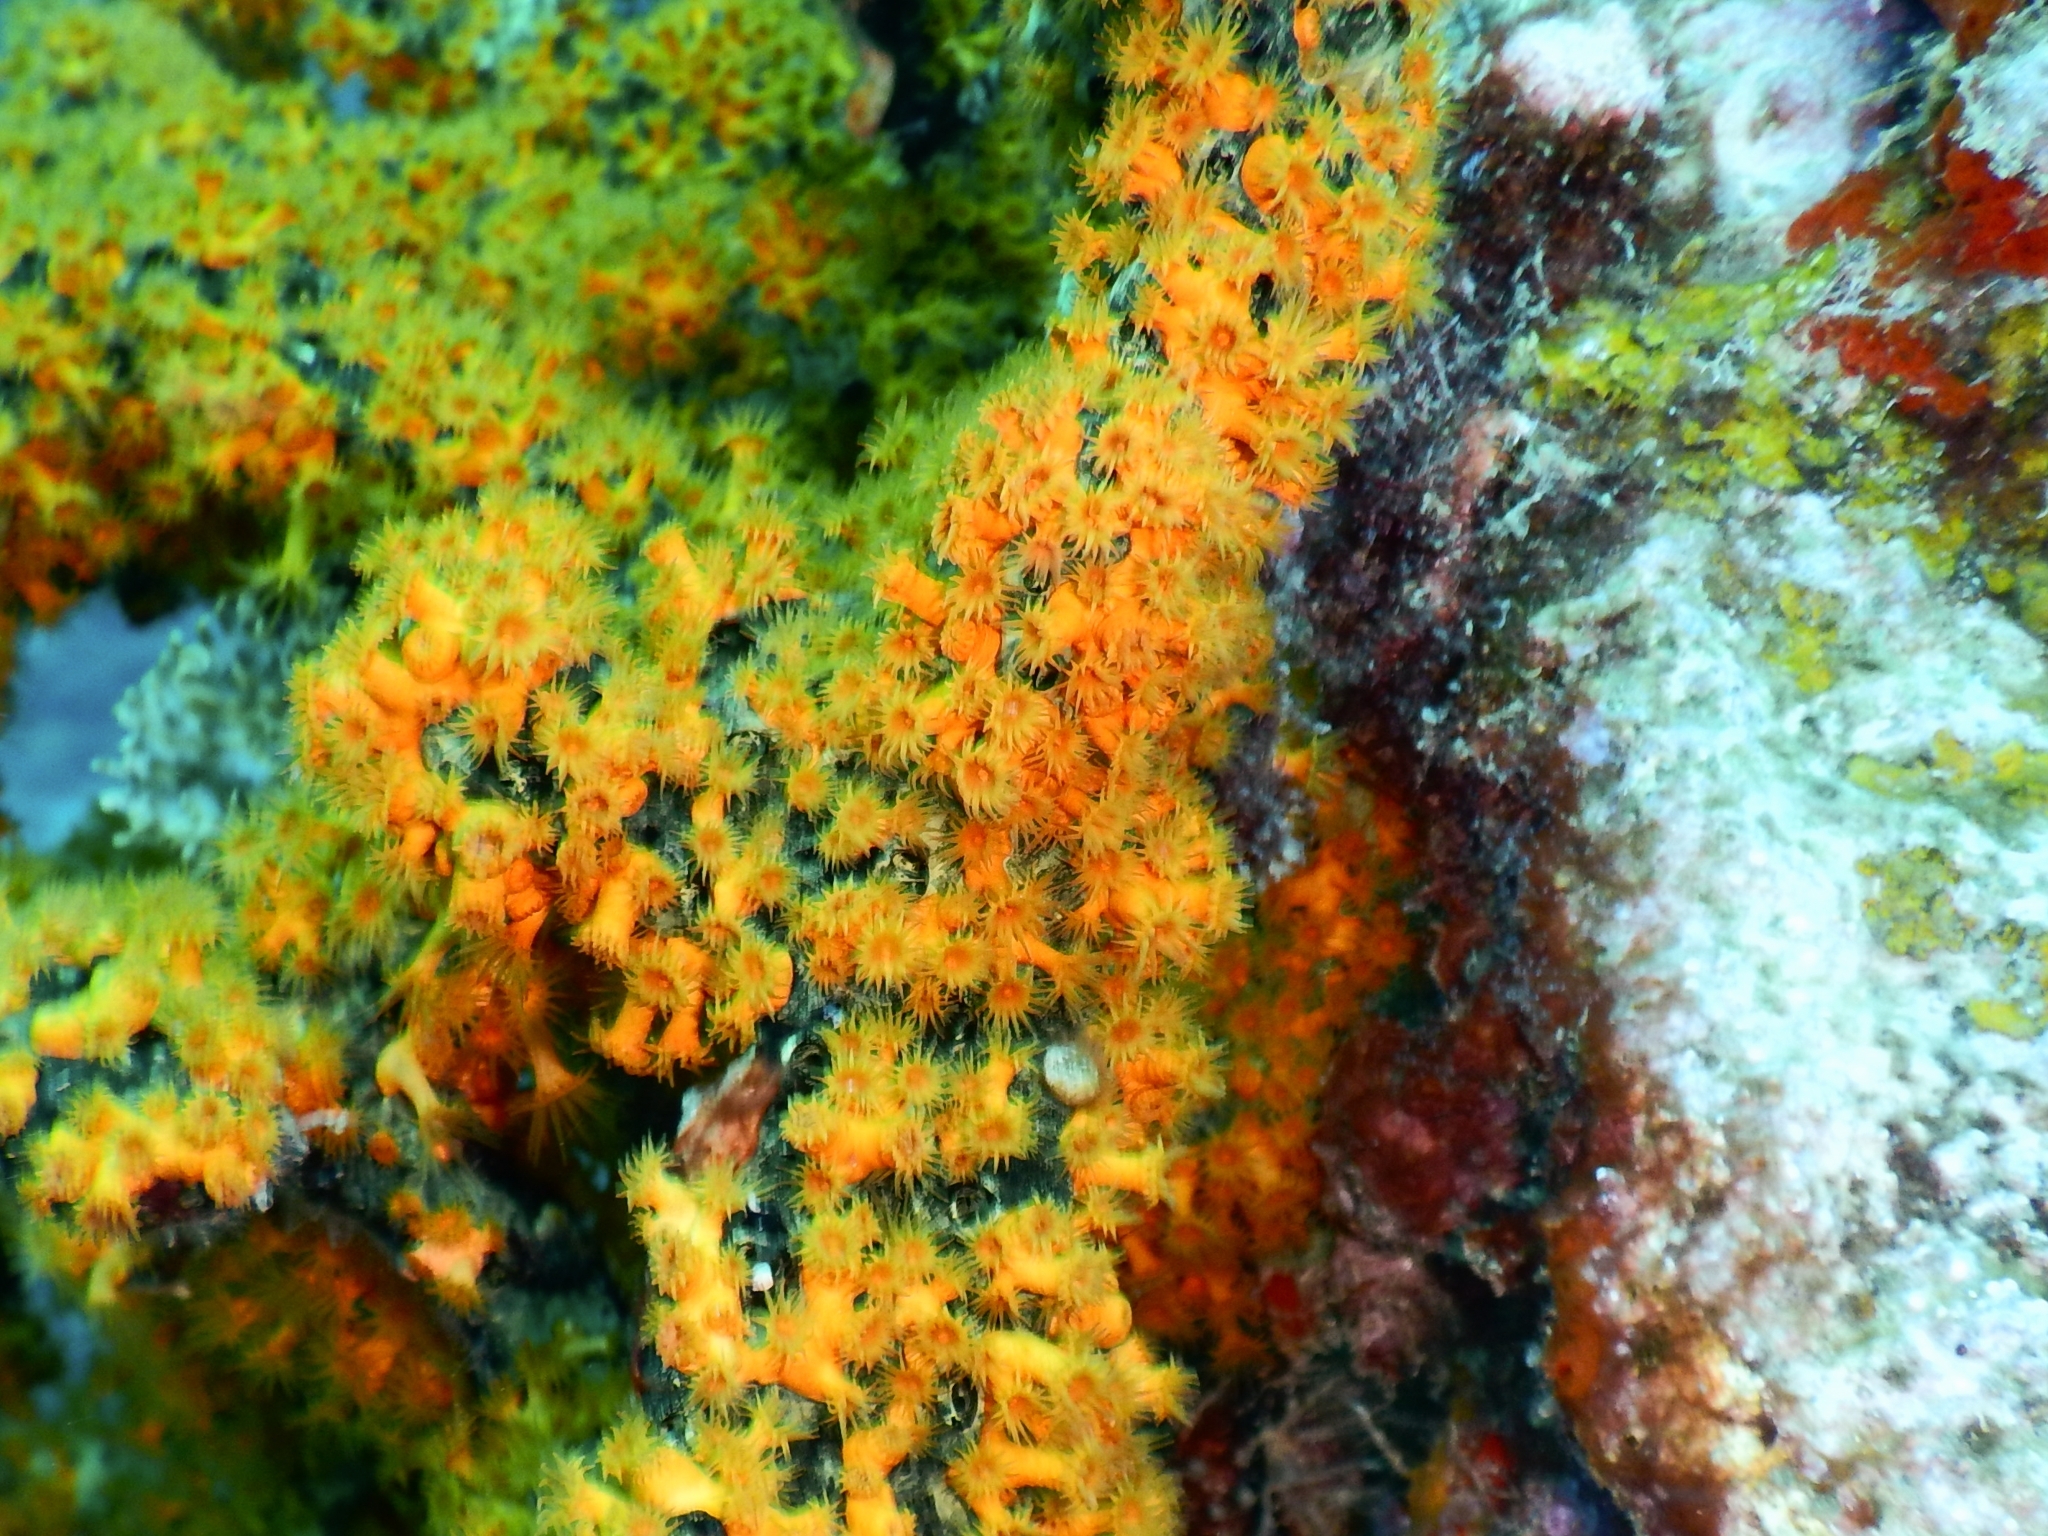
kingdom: Animalia
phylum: Cnidaria
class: Anthozoa
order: Zoantharia
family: Parazoanthidae
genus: Parazoanthus
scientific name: Parazoanthus swiftii
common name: Golden zoanthid
